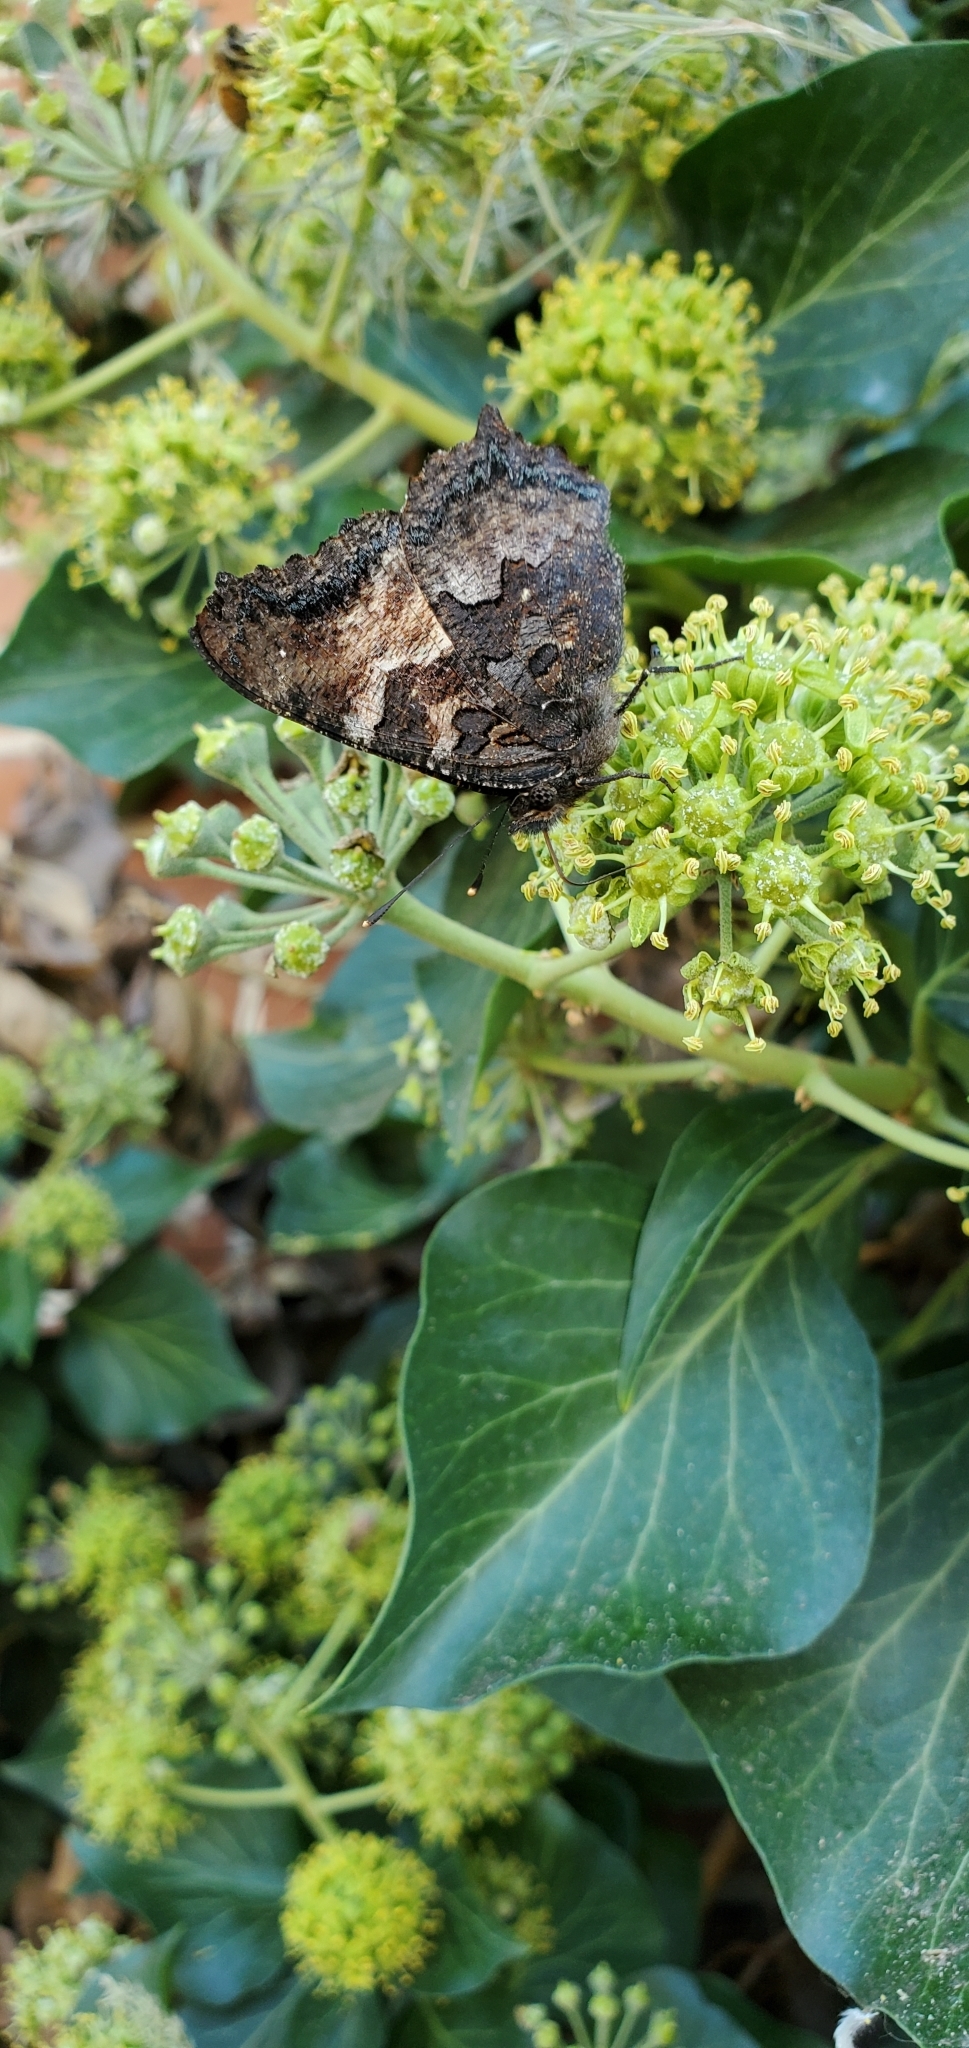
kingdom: Animalia
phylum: Arthropoda
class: Insecta
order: Lepidoptera
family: Nymphalidae
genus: Nymphalis
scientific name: Nymphalis californica
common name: California tortoiseshell
